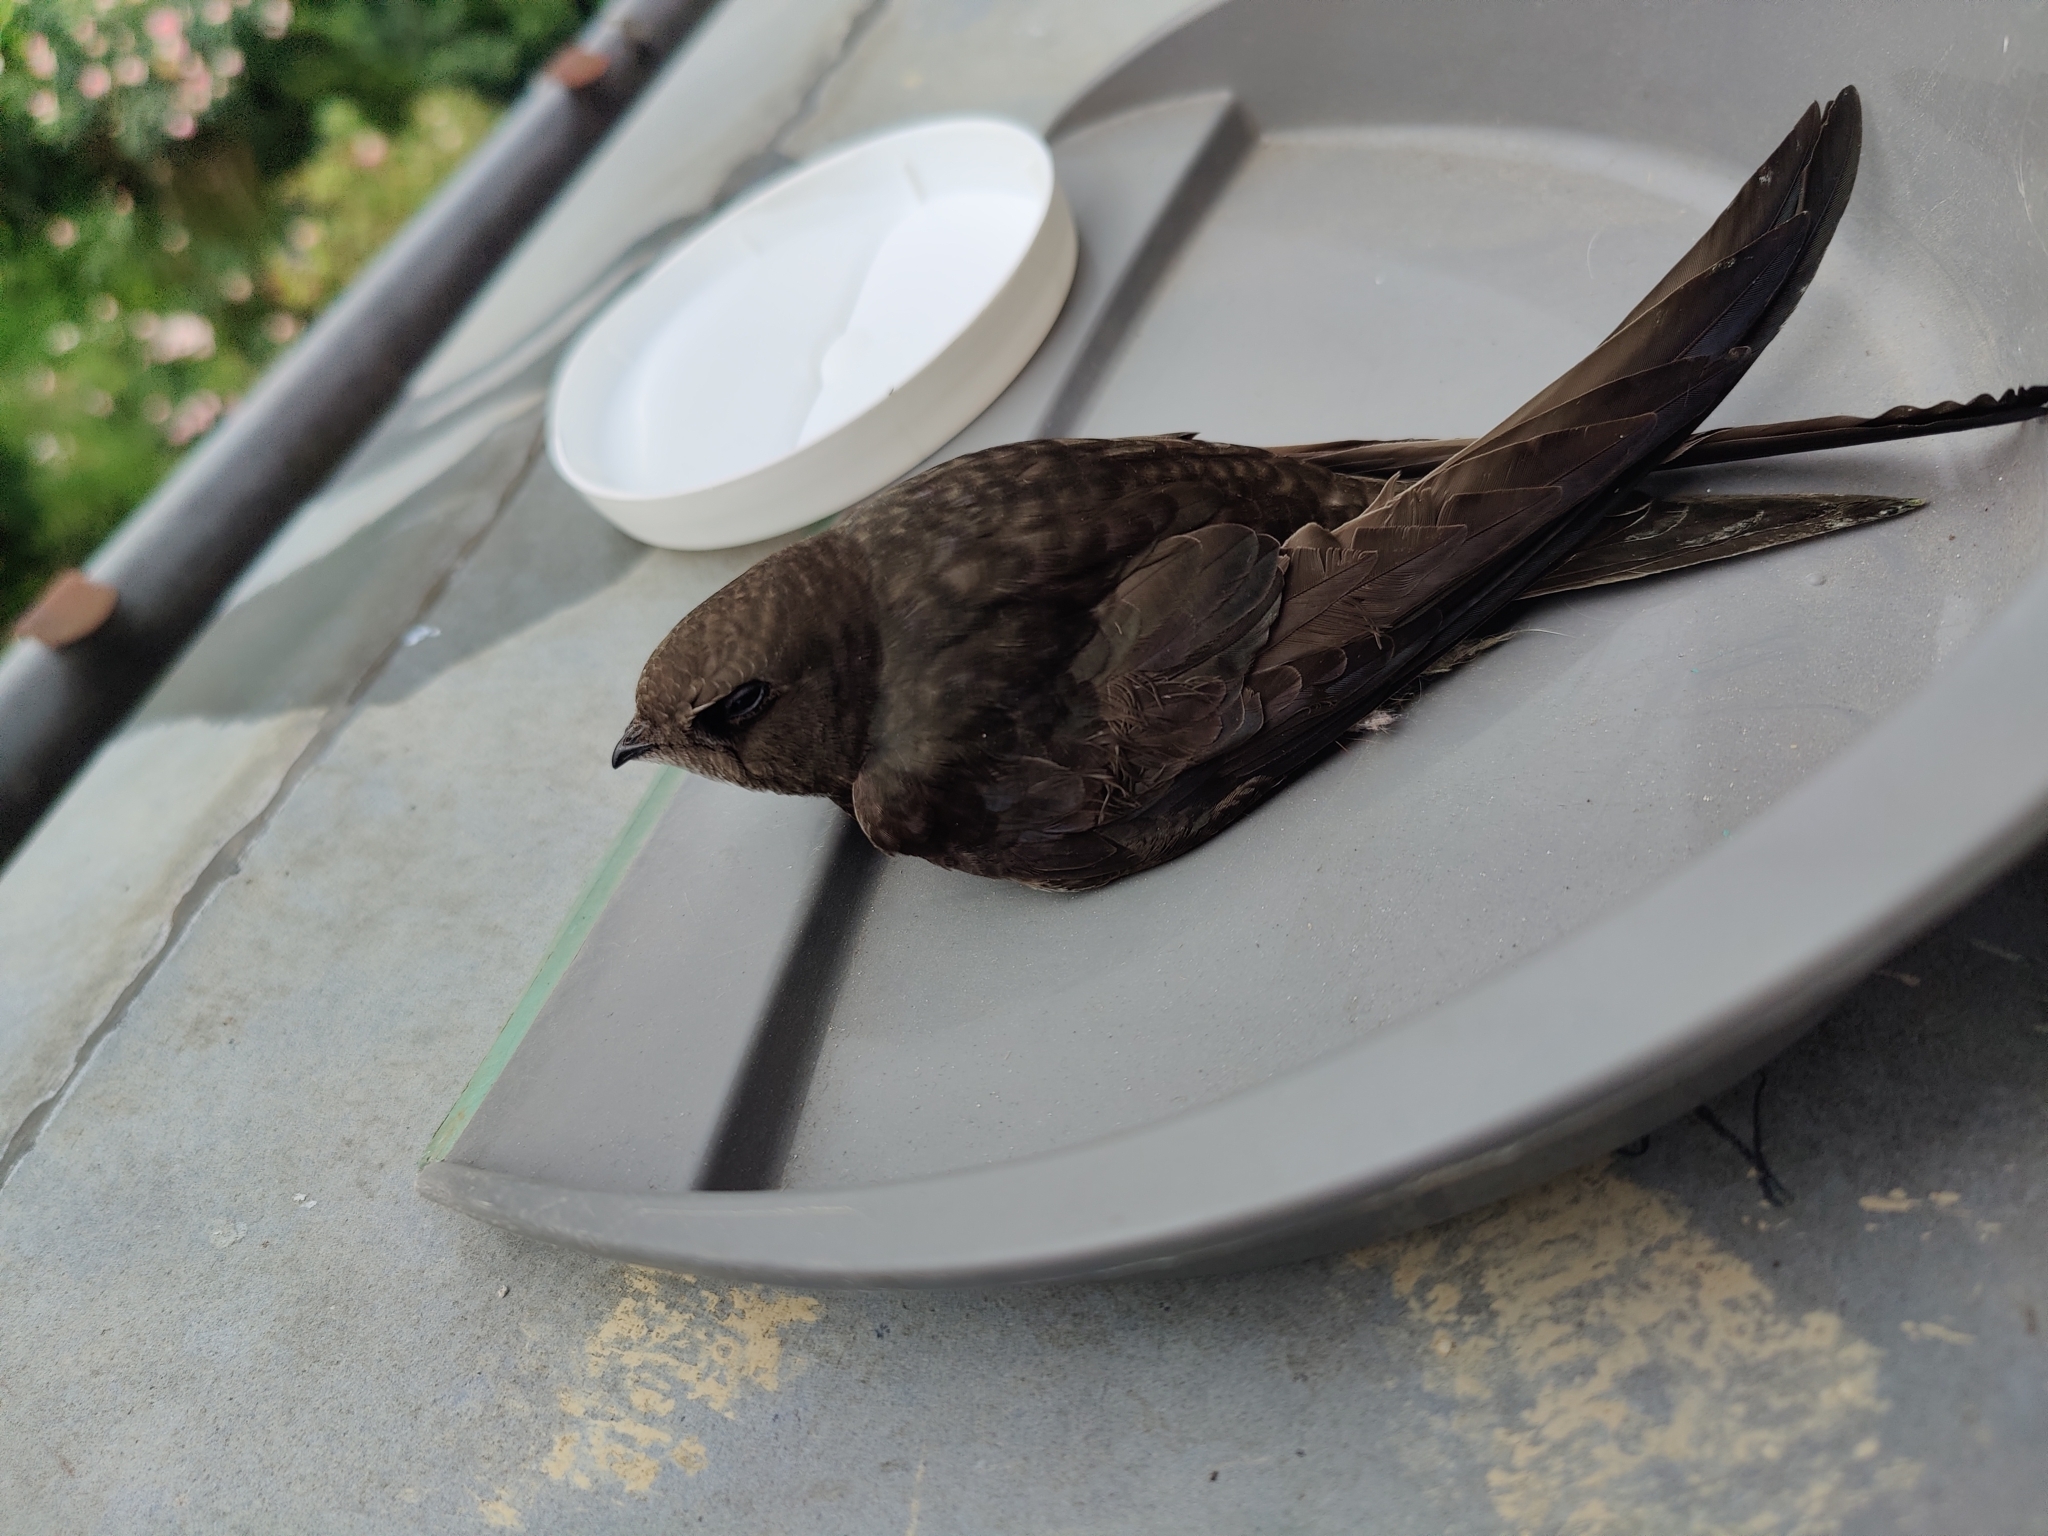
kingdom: Animalia
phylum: Chordata
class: Aves
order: Apodiformes
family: Apodidae
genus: Apus
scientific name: Apus apus
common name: Common swift
